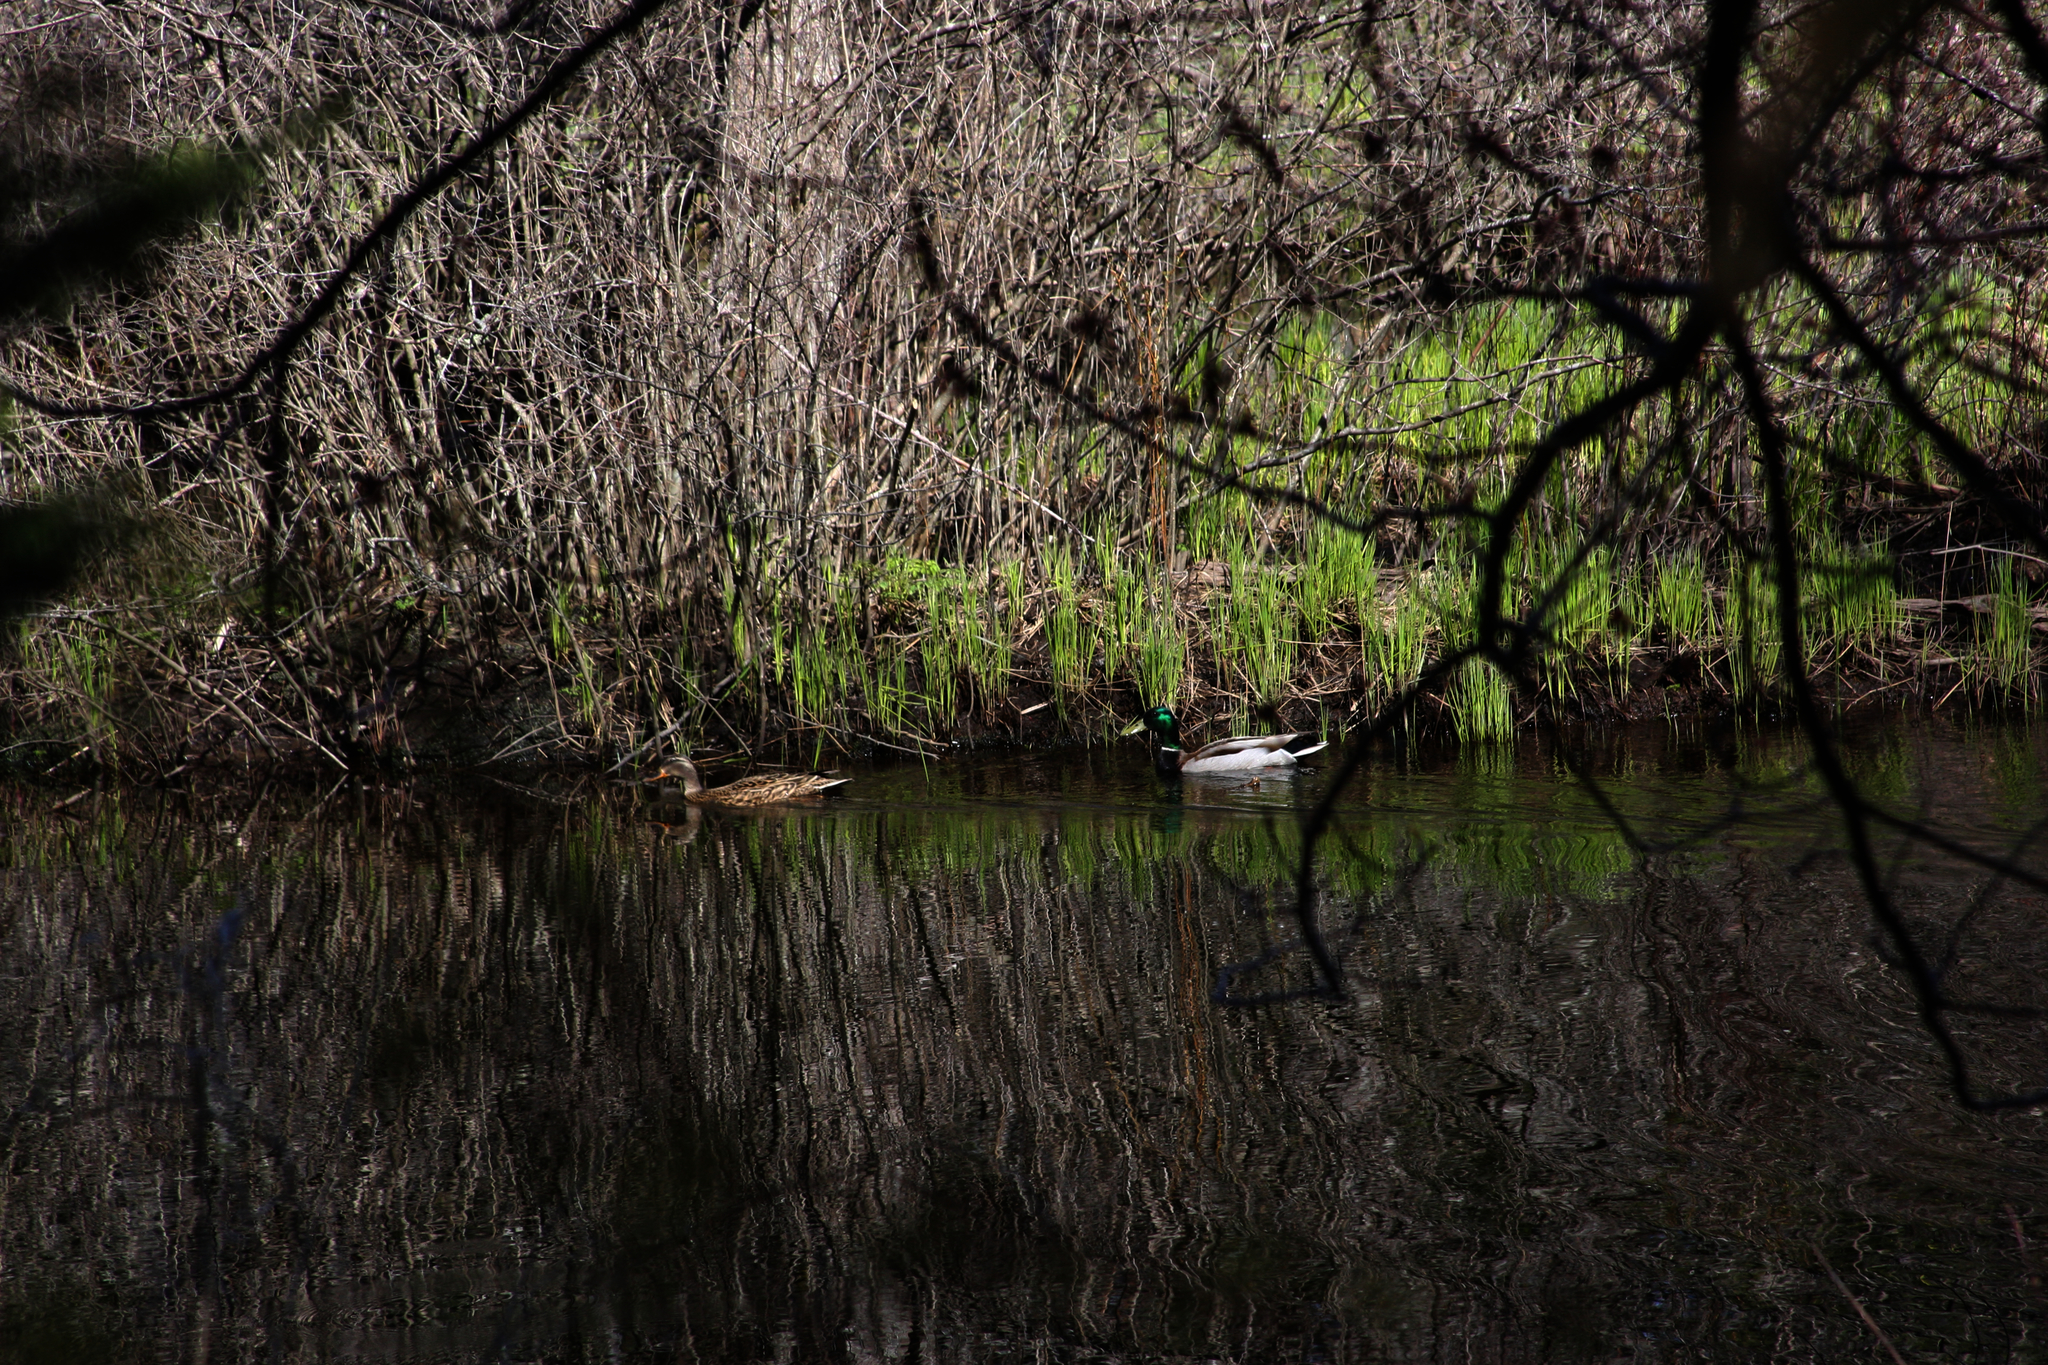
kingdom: Animalia
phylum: Chordata
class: Aves
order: Anseriformes
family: Anatidae
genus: Anas
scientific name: Anas platyrhynchos
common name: Mallard
